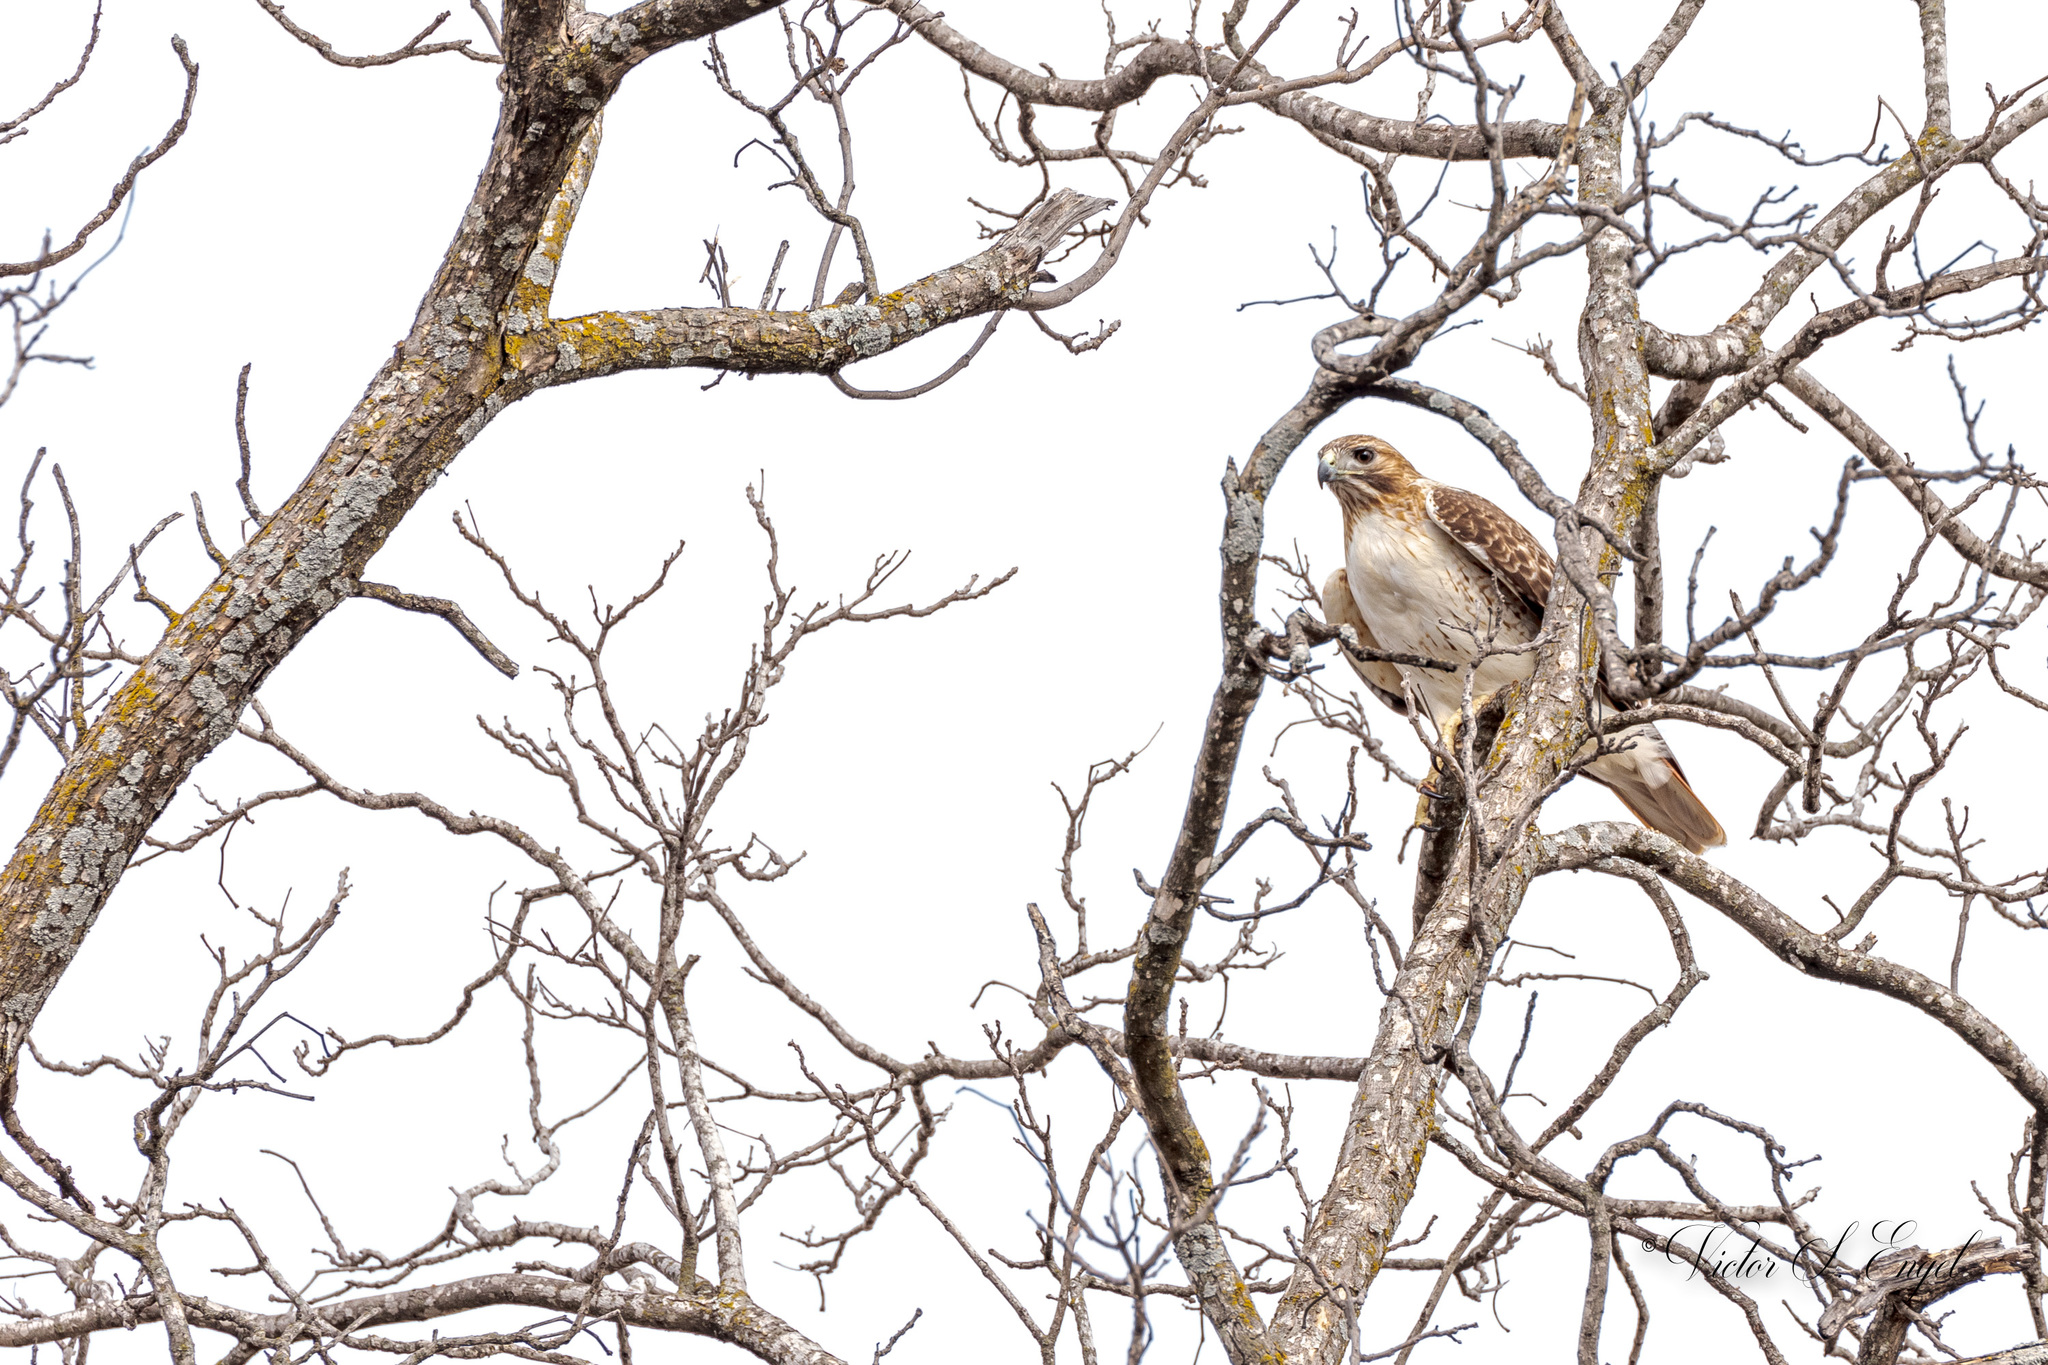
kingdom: Animalia
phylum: Chordata
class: Aves
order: Accipitriformes
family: Accipitridae
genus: Buteo
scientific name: Buteo jamaicensis
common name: Red-tailed hawk
